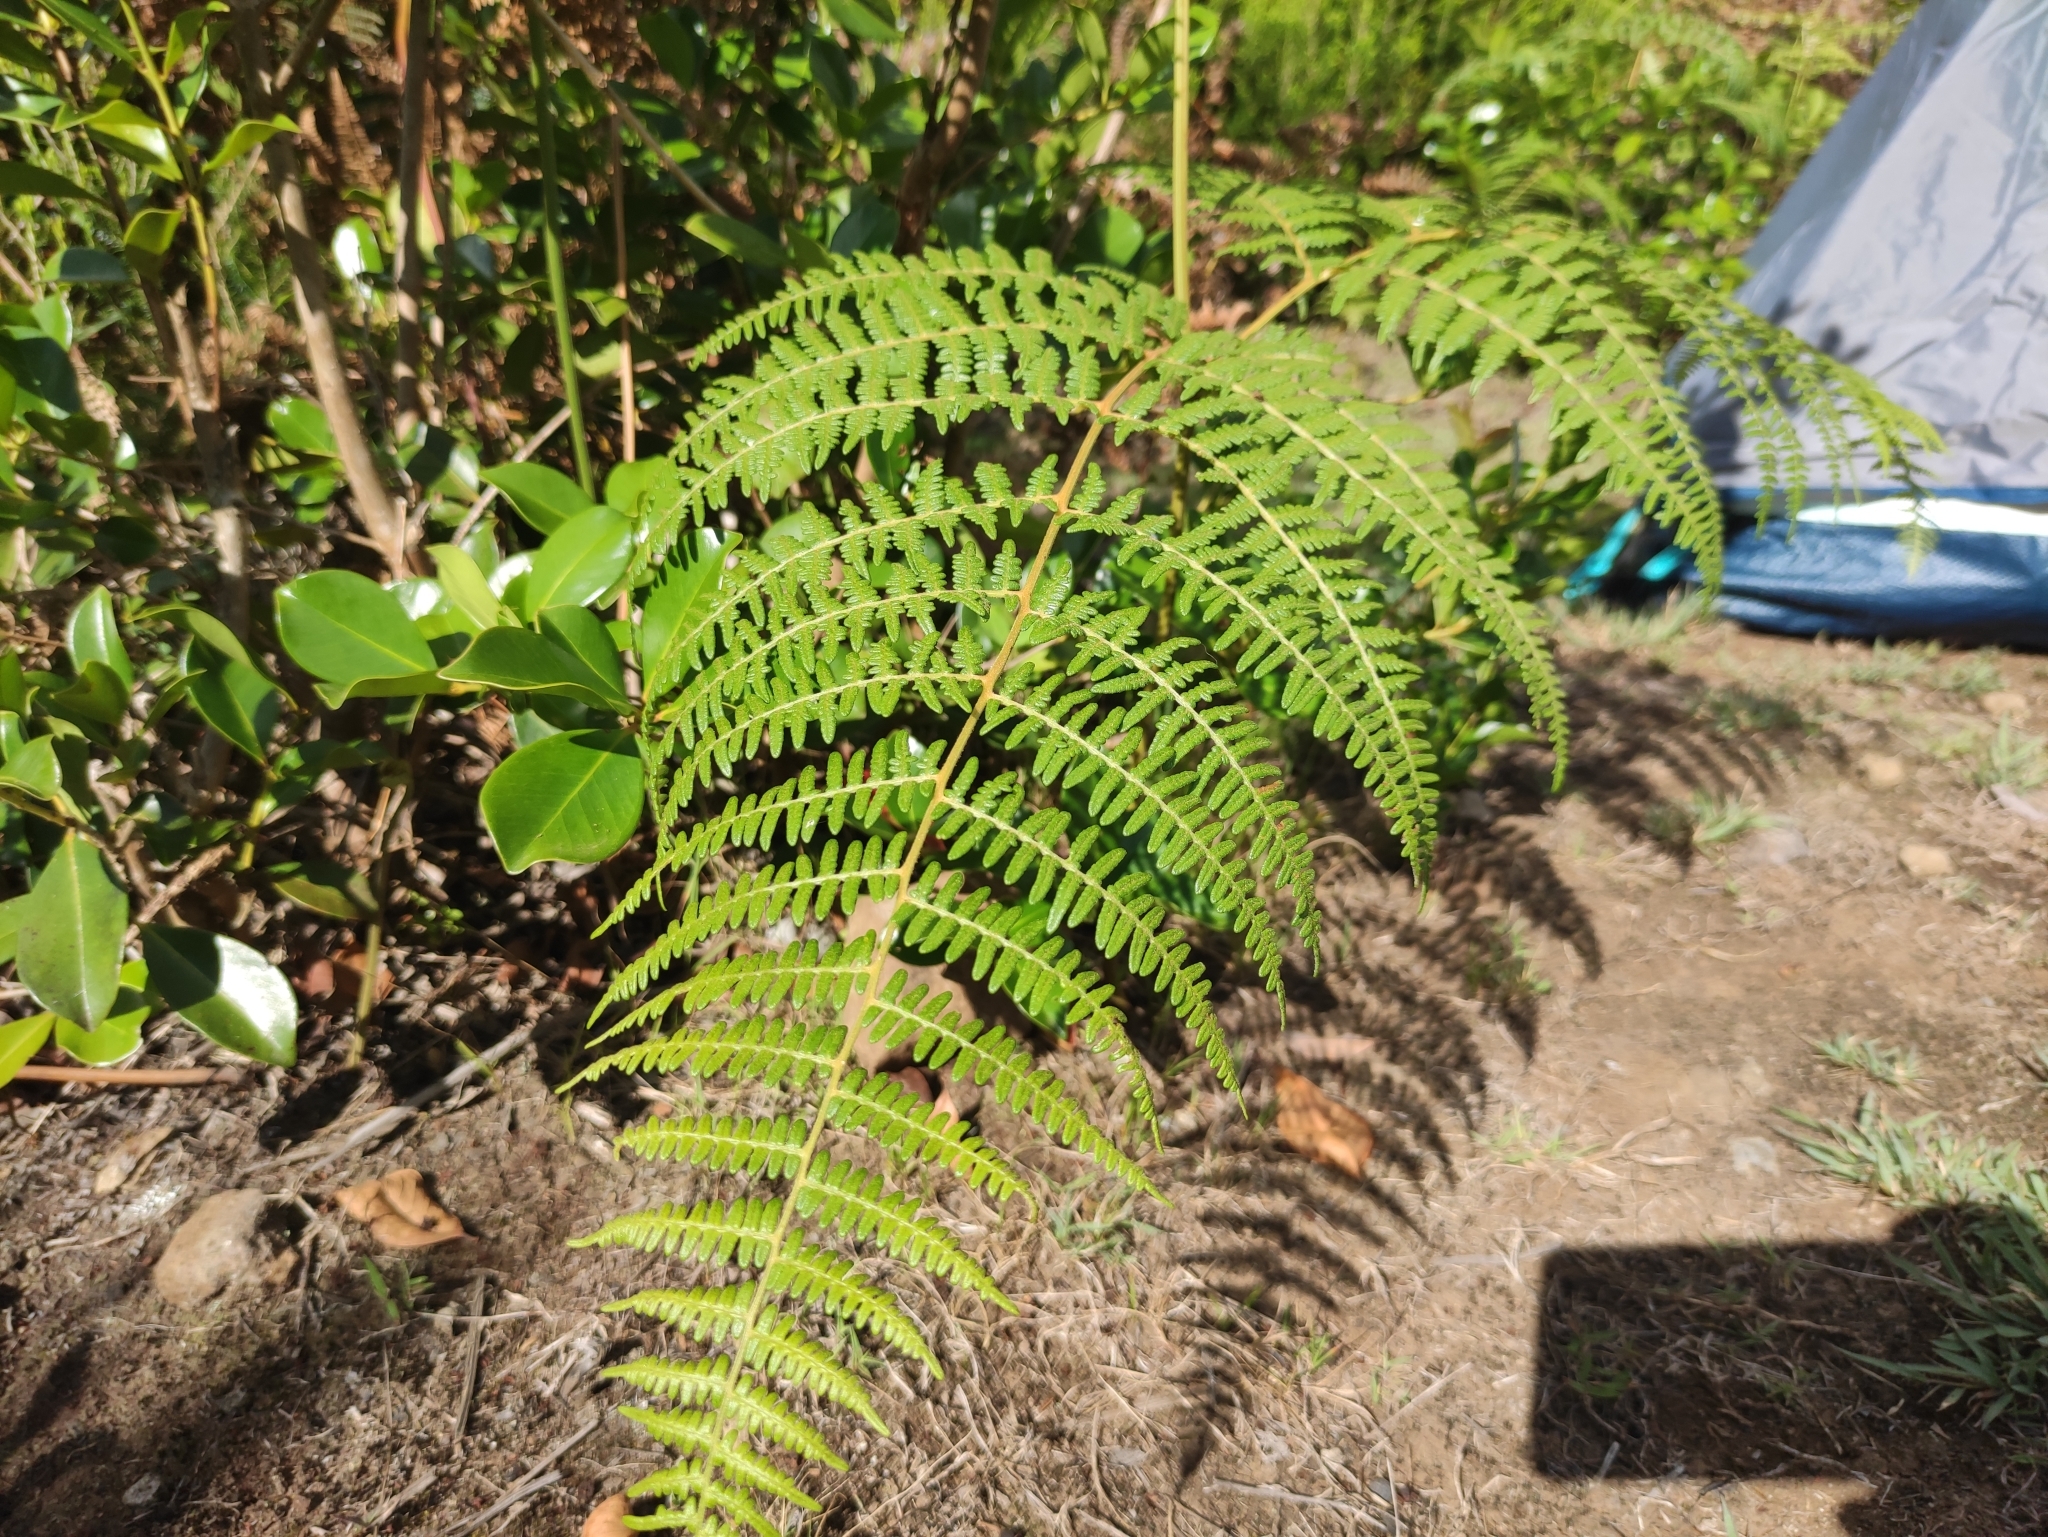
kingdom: Plantae
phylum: Tracheophyta
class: Polypodiopsida
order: Polypodiales
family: Dennstaedtiaceae
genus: Pteridium
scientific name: Pteridium aquilinum
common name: Bracken
